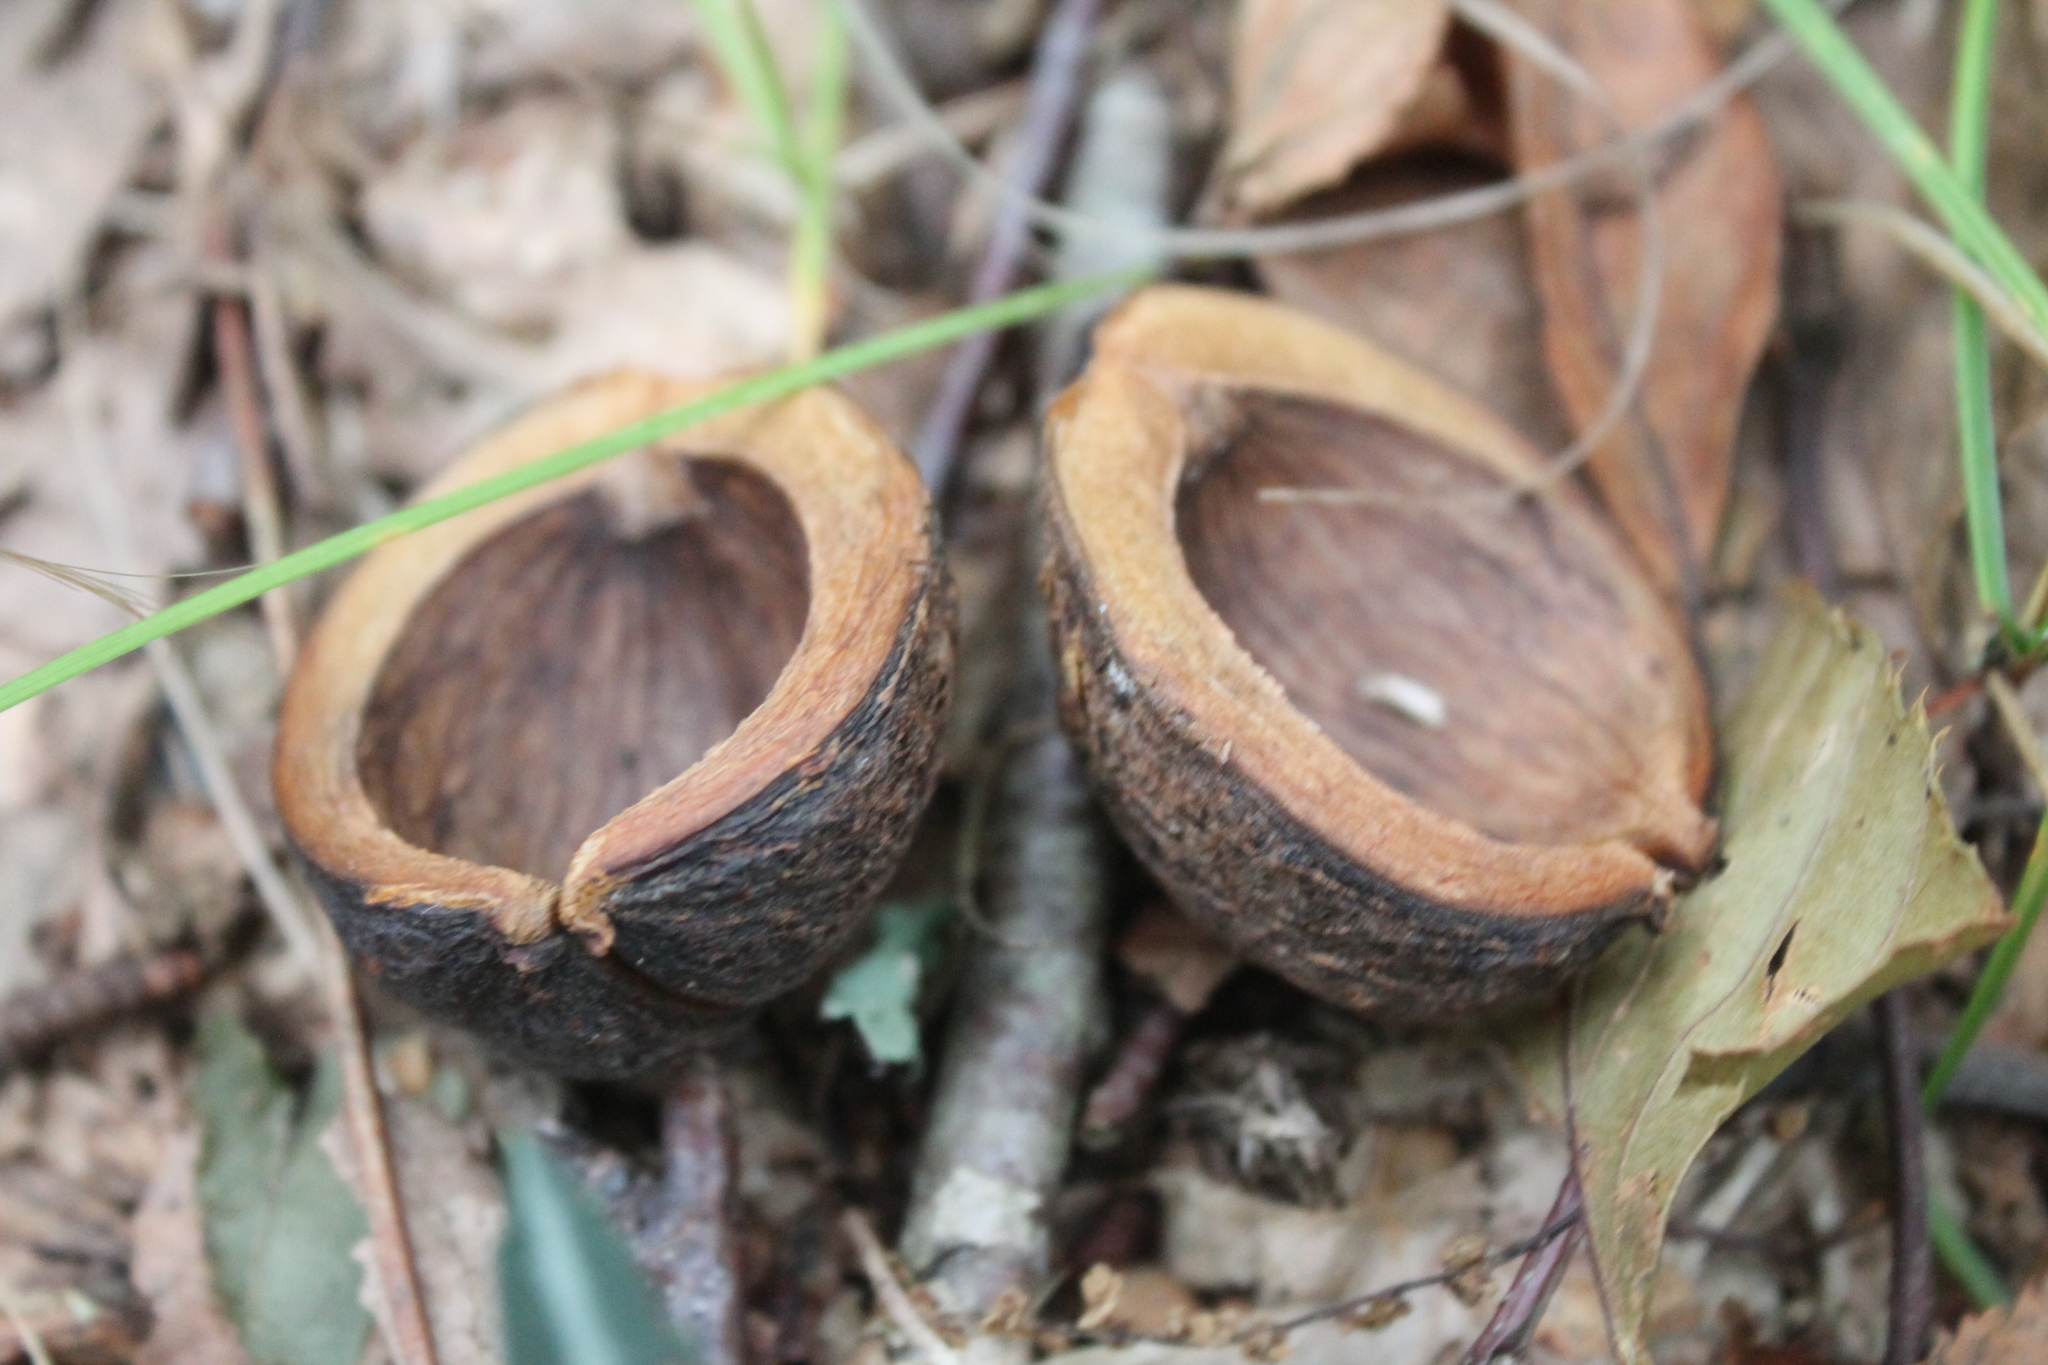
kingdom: Plantae
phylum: Tracheophyta
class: Magnoliopsida
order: Fagales
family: Juglandaceae
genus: Carya
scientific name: Carya glabra
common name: Pignut hickory
